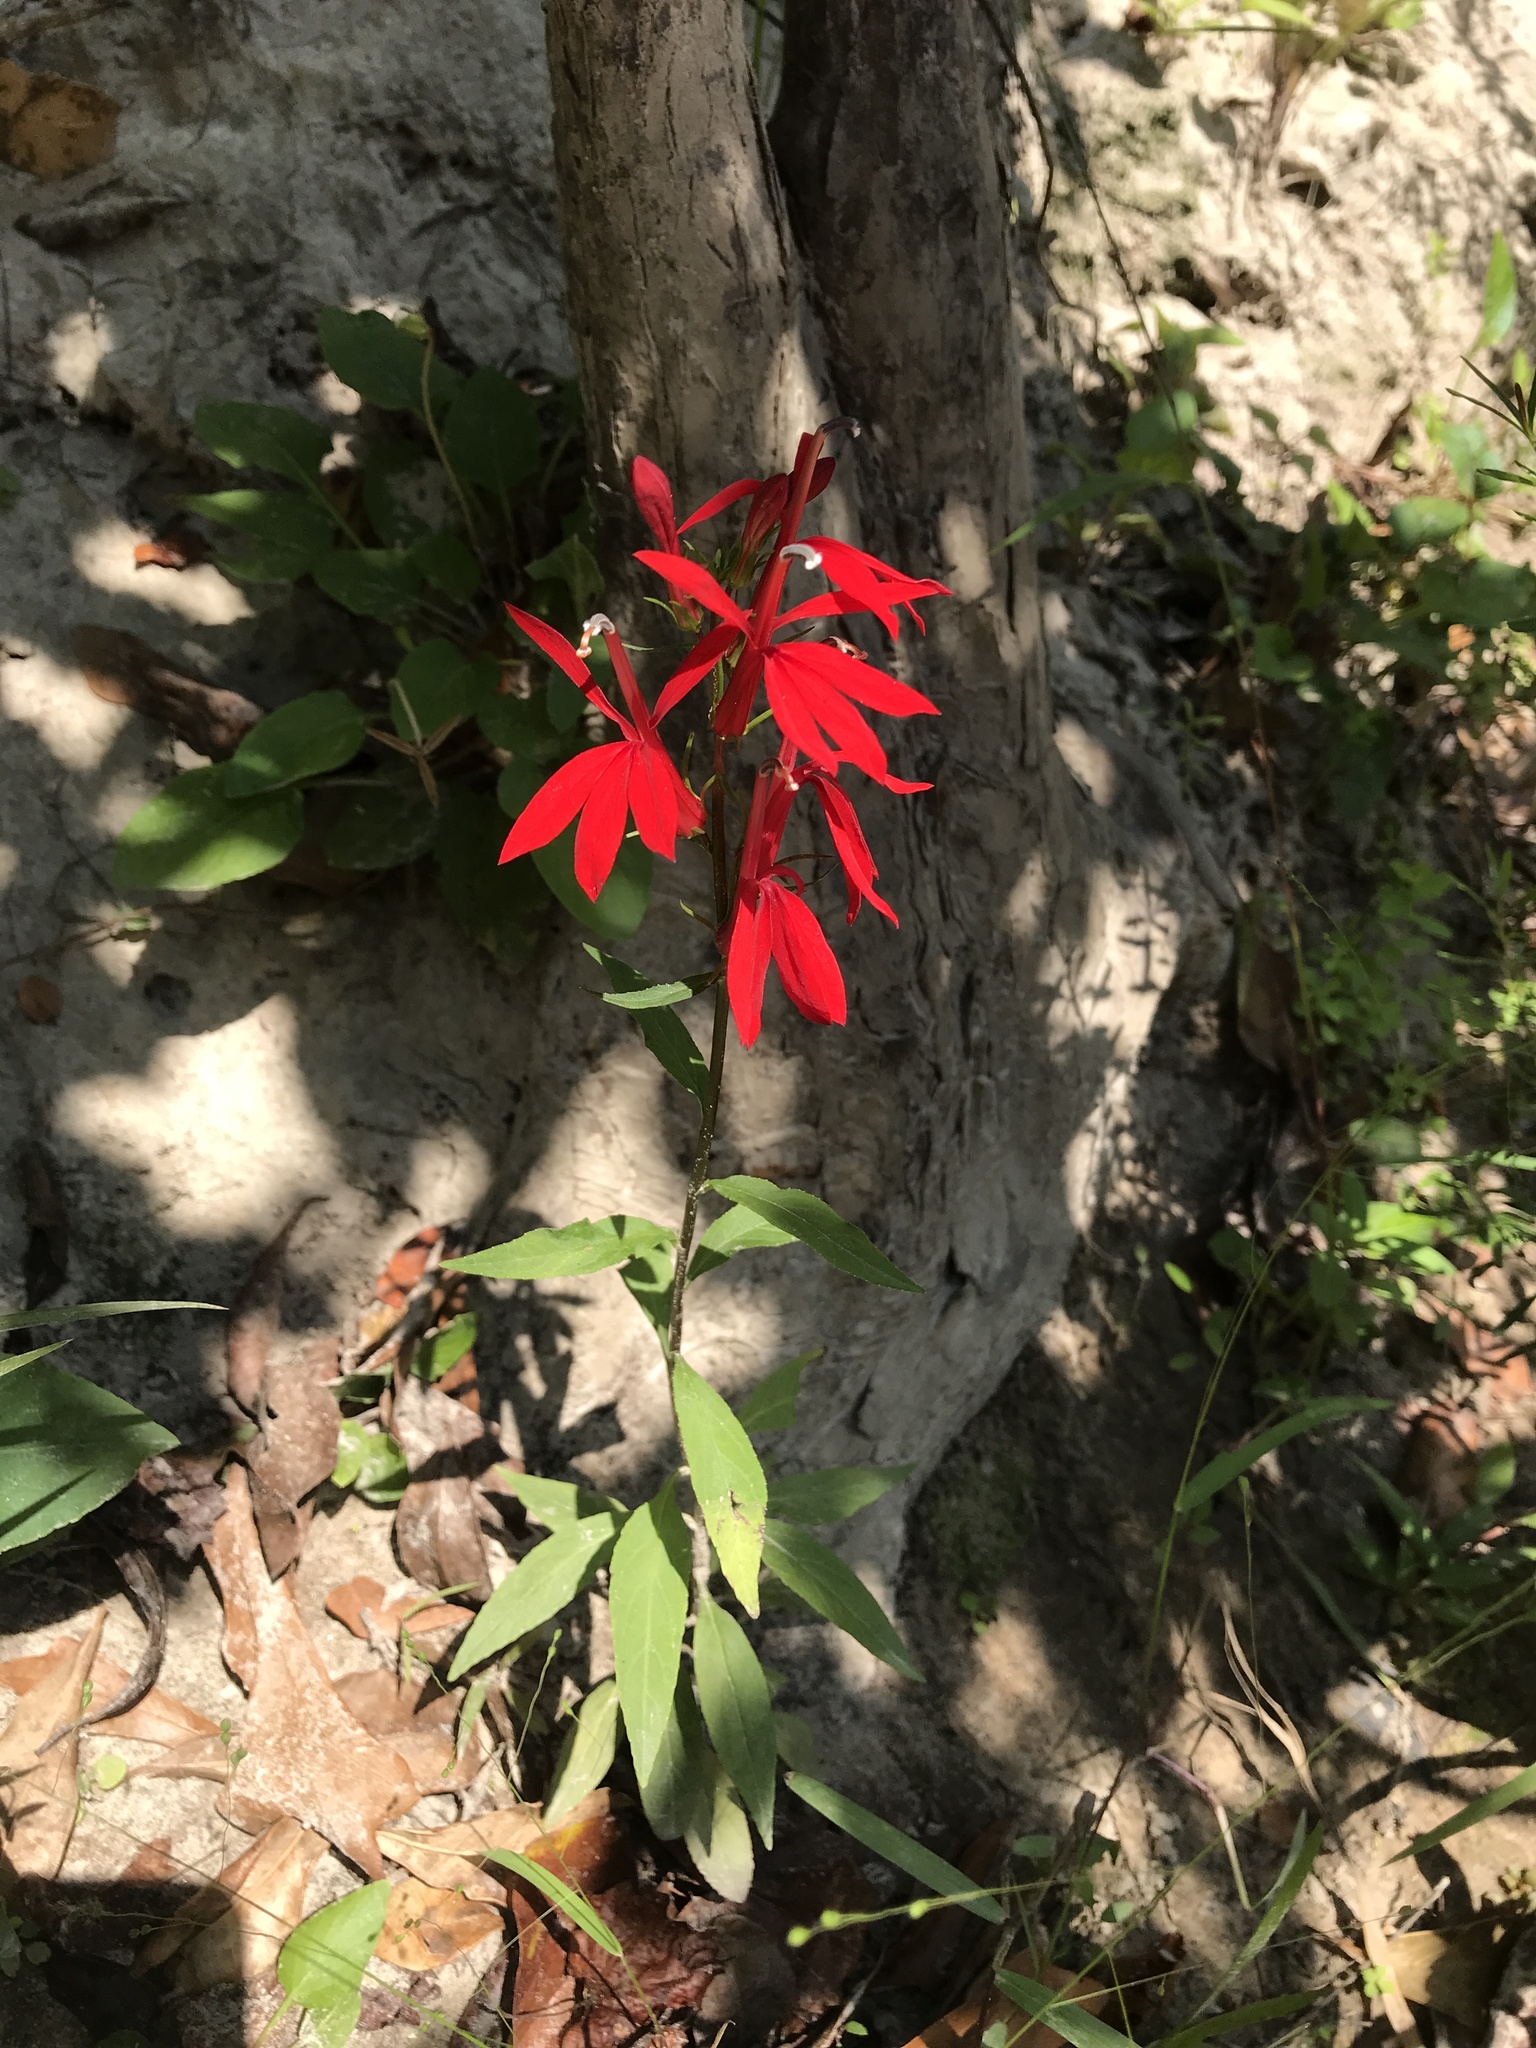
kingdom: Plantae
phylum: Tracheophyta
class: Magnoliopsida
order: Asterales
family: Campanulaceae
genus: Lobelia
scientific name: Lobelia cardinalis
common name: Cardinal flower
